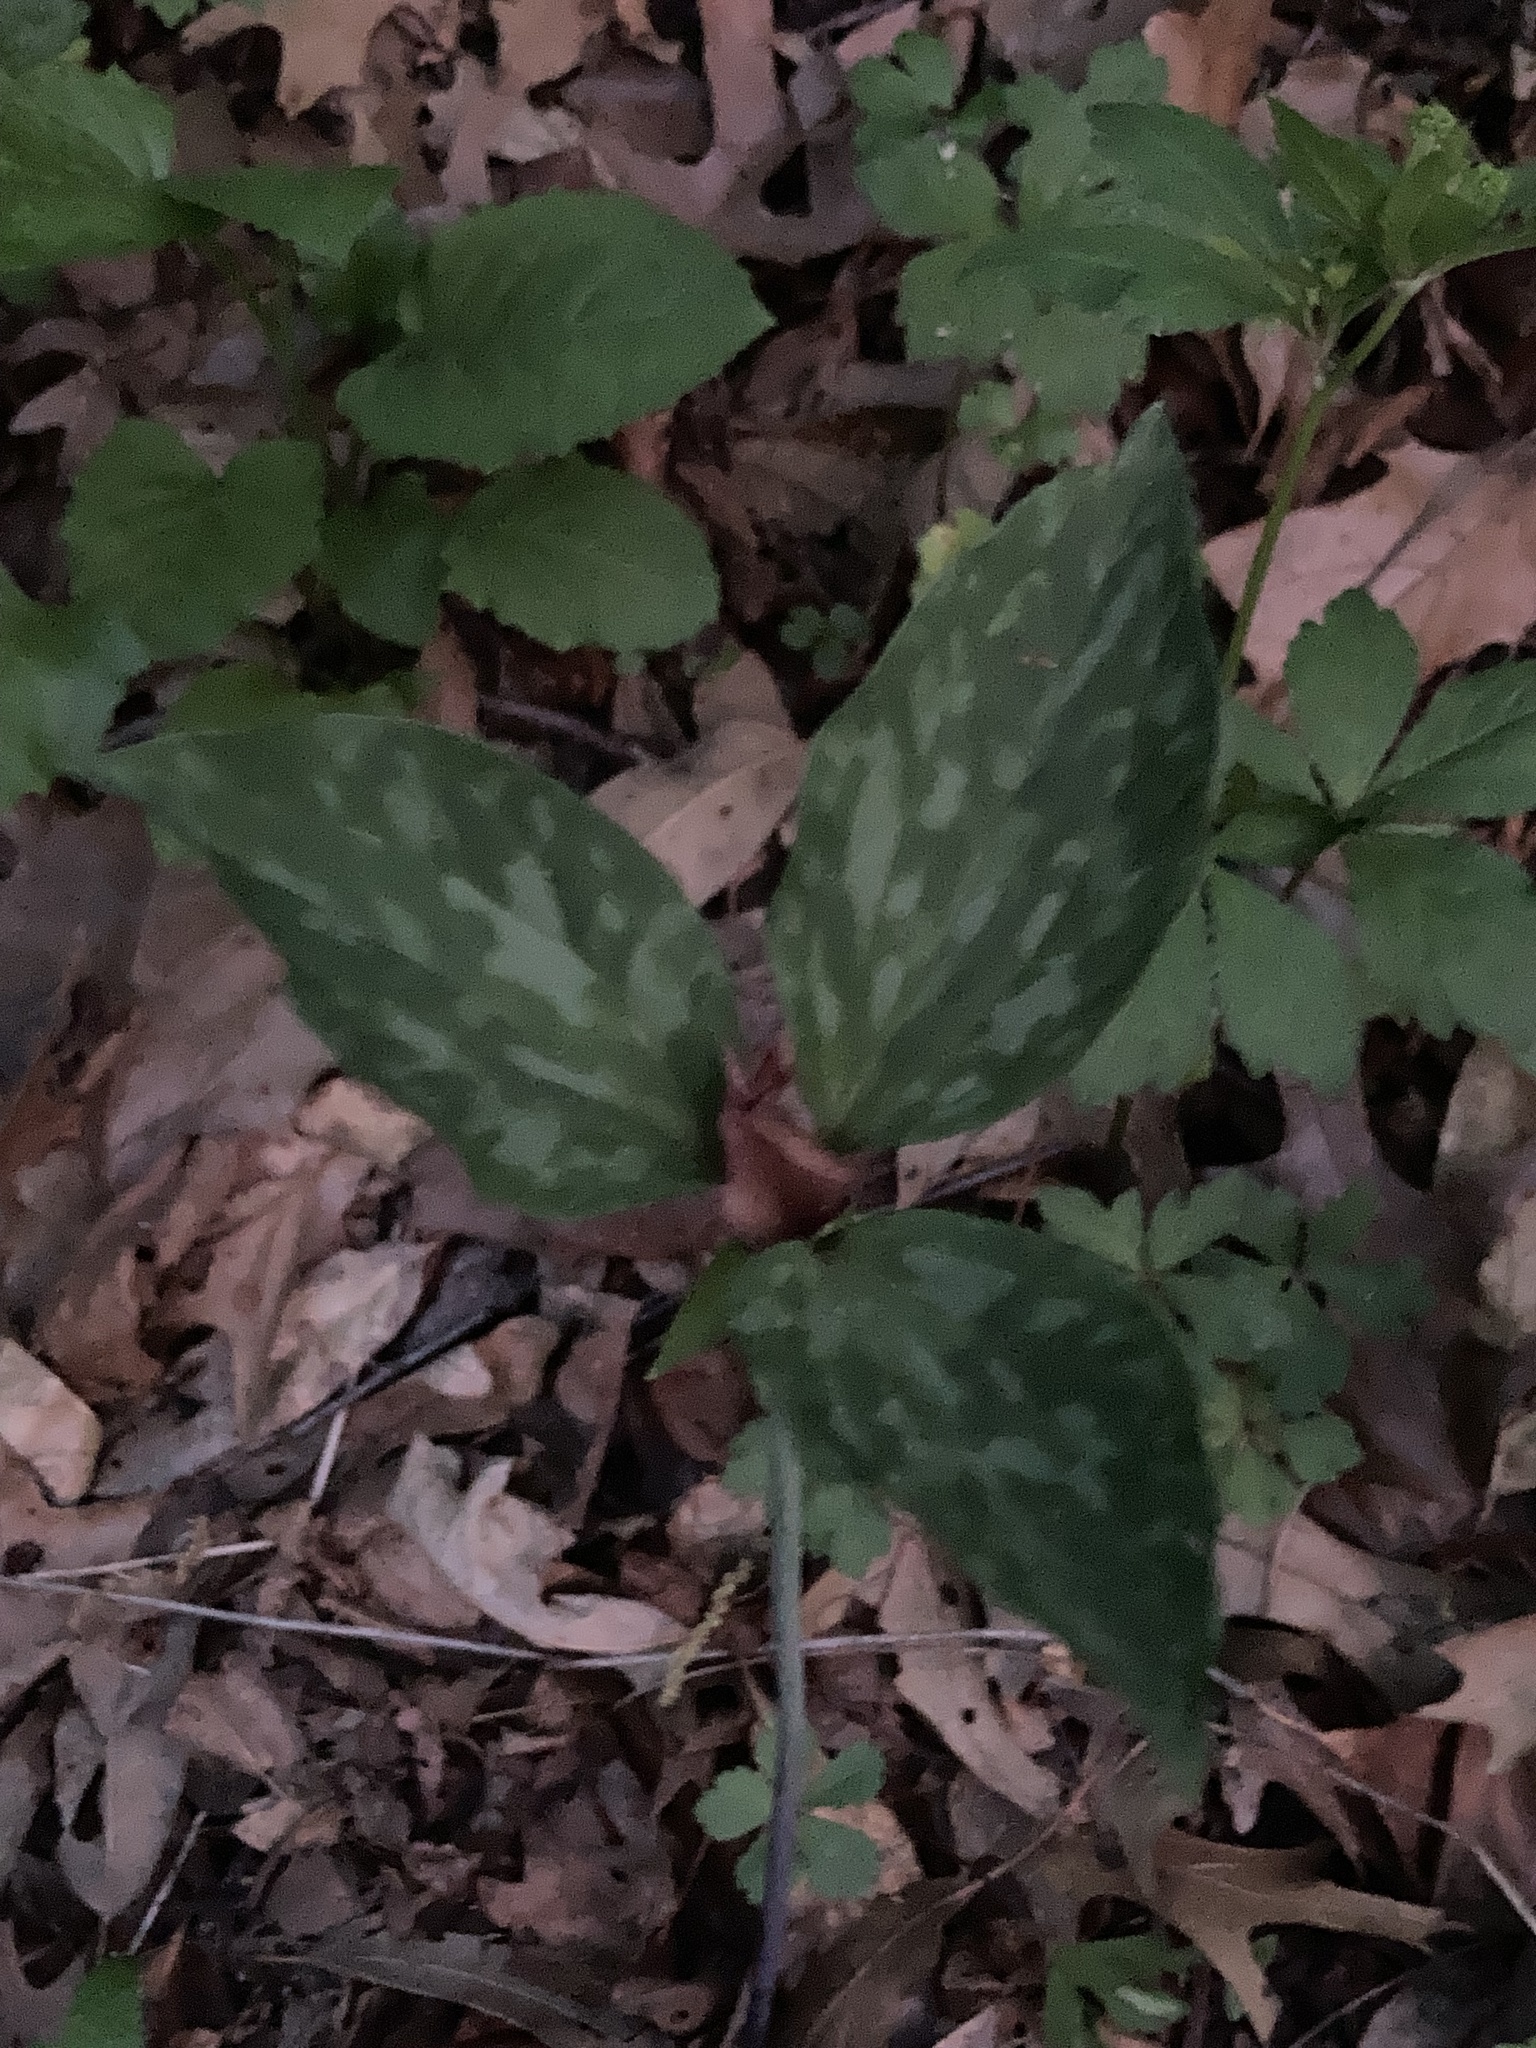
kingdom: Plantae
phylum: Tracheophyta
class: Liliopsida
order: Liliales
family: Melanthiaceae
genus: Trillium
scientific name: Trillium recurvatum
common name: Bloody butcher
